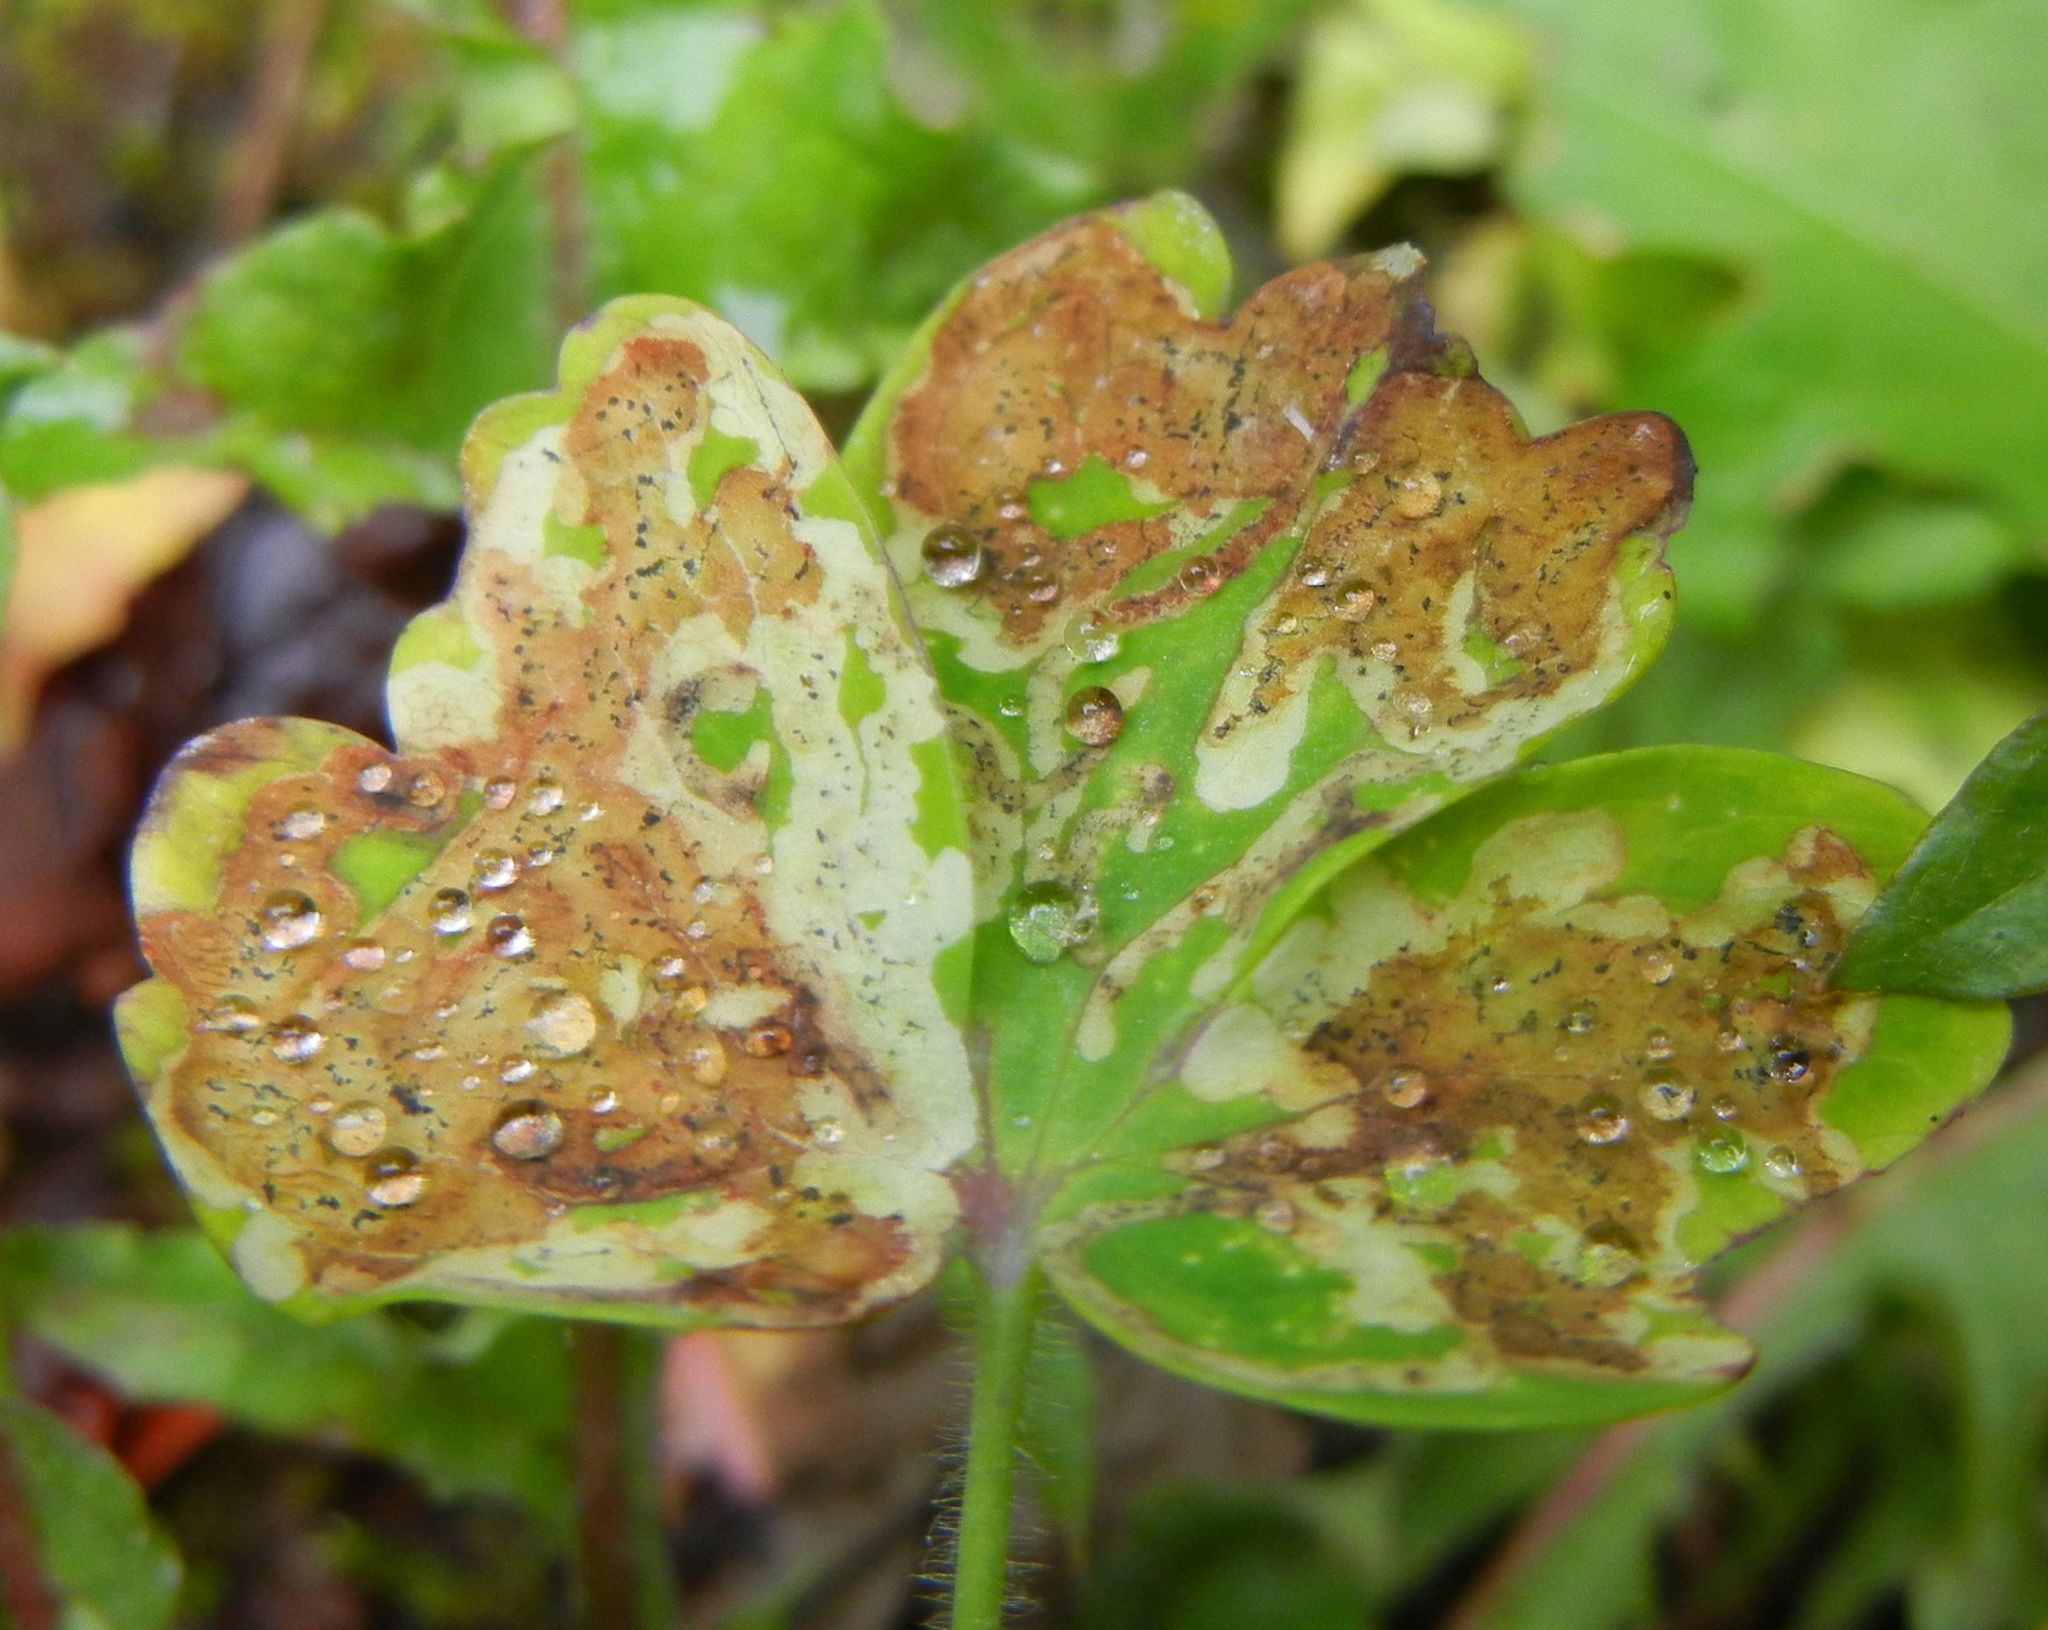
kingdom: Animalia
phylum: Arthropoda
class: Insecta
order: Diptera
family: Agromyzidae
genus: Phytomyza
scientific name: Phytomyza ancholiae
